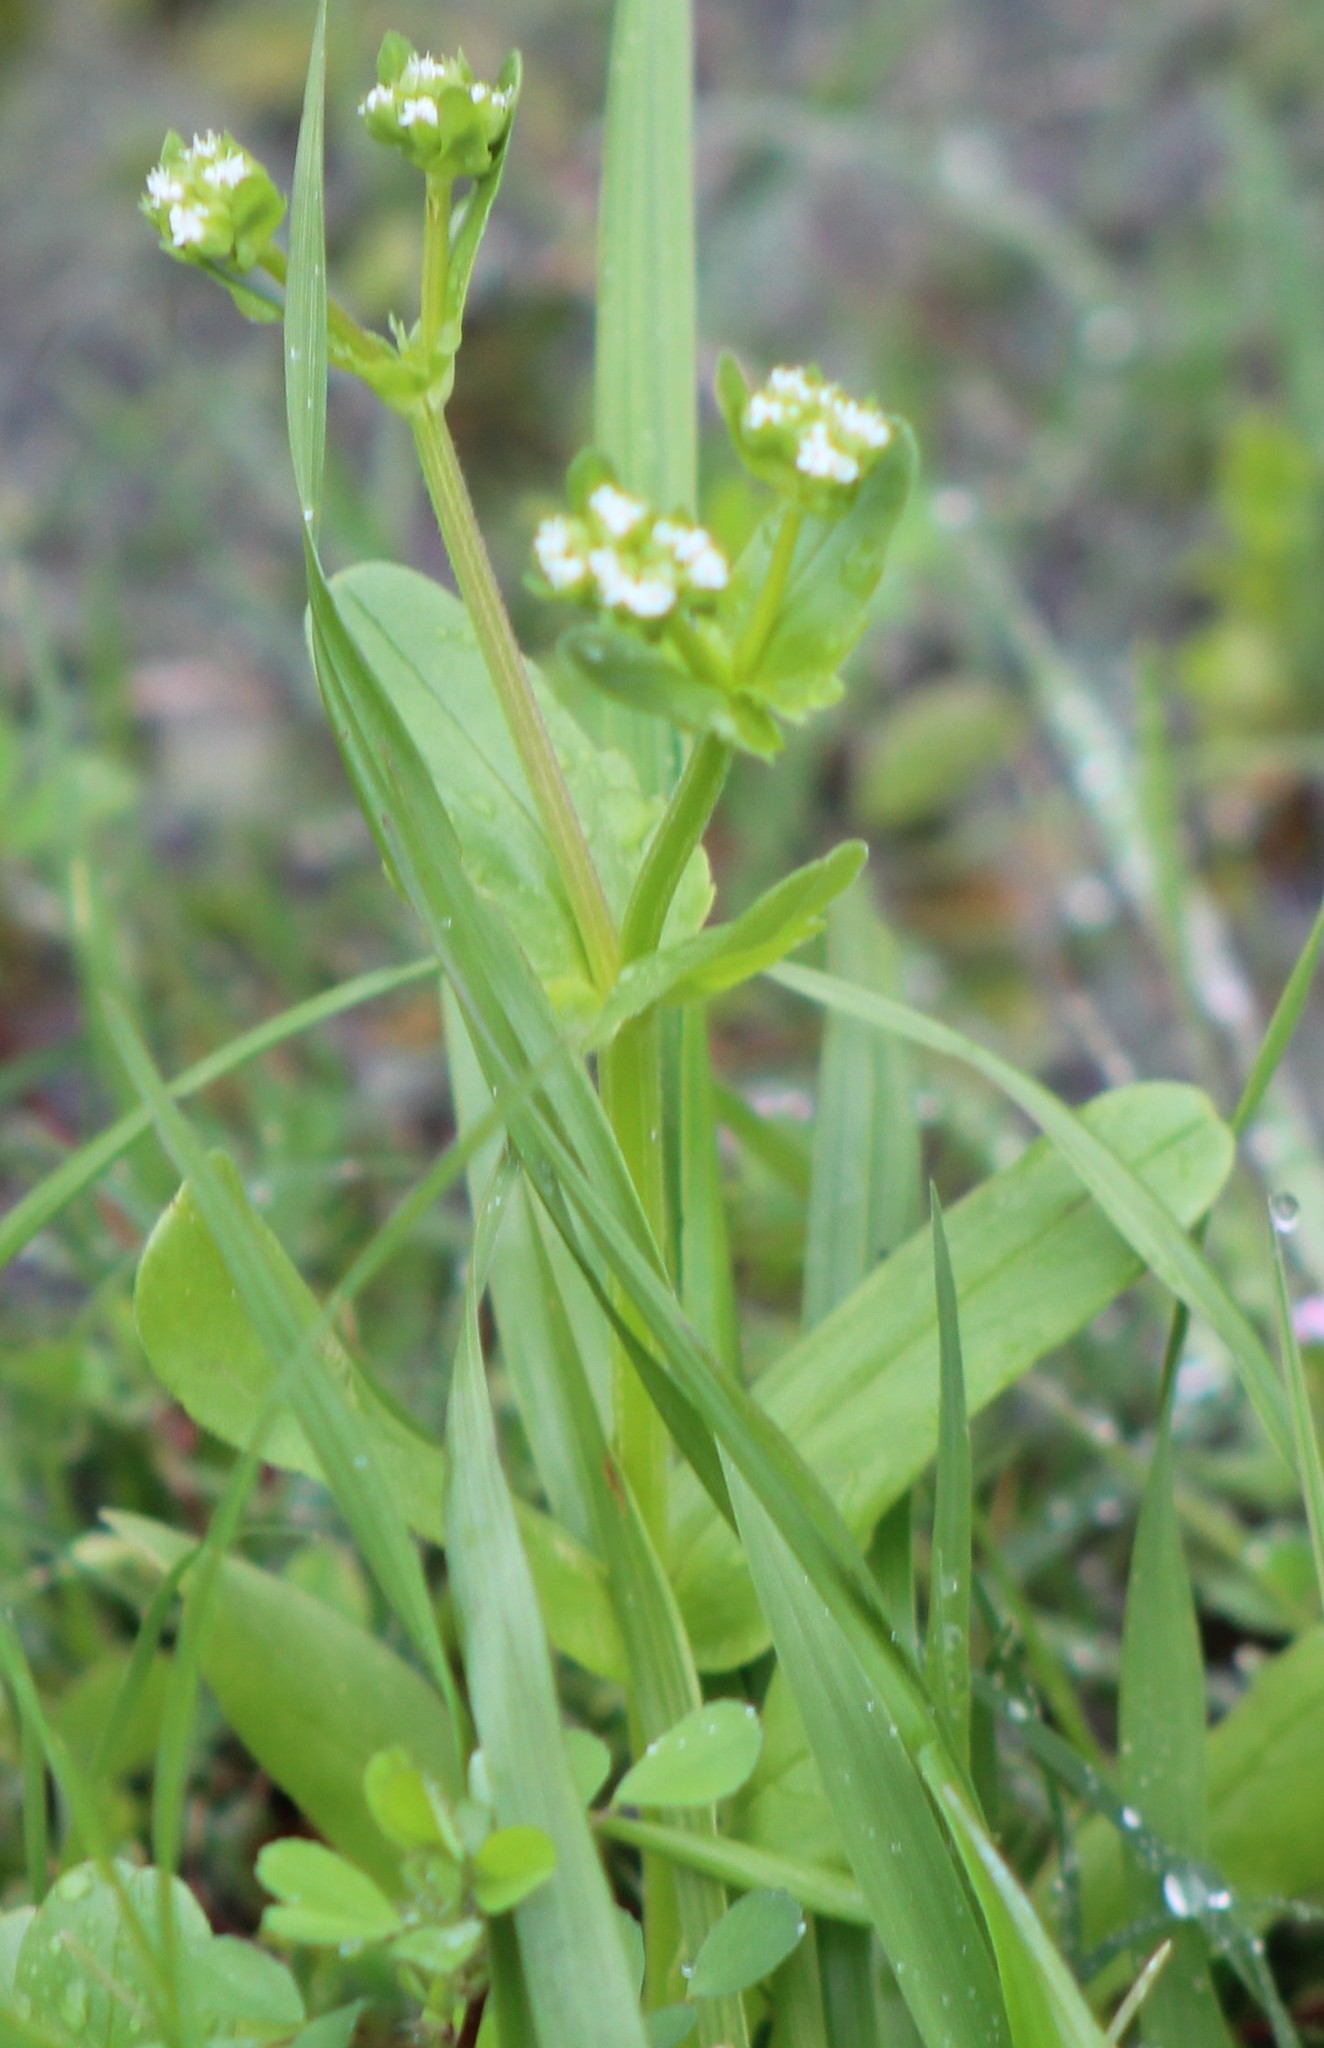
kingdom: Plantae
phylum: Tracheophyta
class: Magnoliopsida
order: Dipsacales
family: Caprifoliaceae
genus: Valerianella
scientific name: Valerianella radiata
